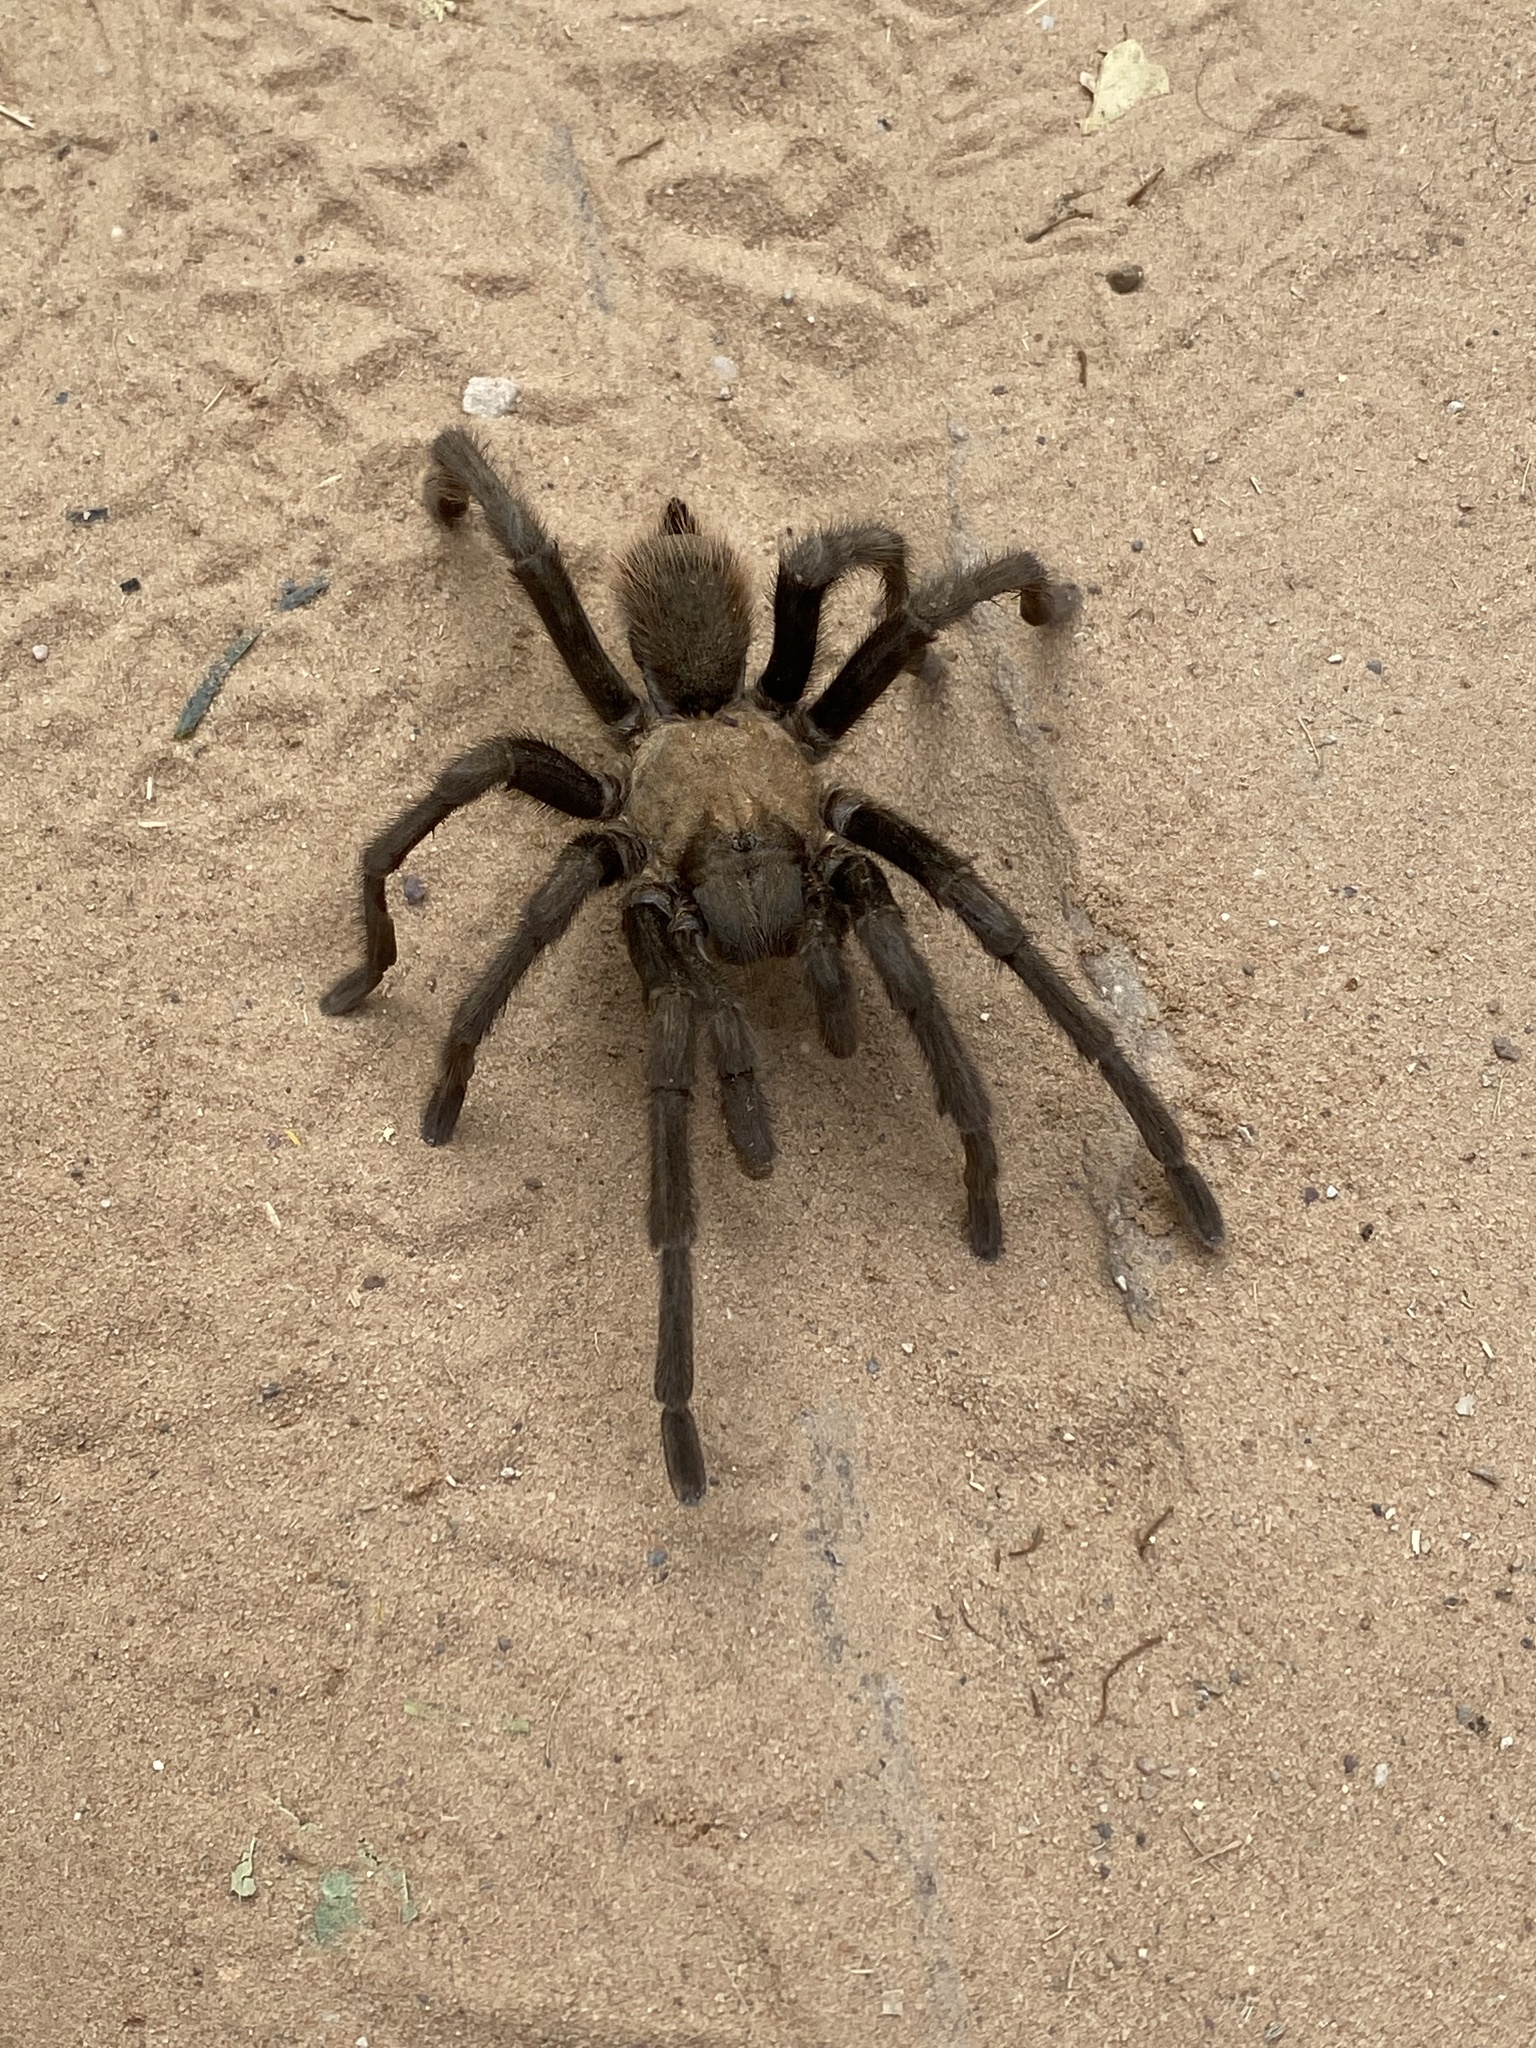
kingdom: Animalia
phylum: Arthropoda
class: Arachnida
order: Araneae
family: Theraphosidae
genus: Aphonopelma
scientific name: Aphonopelma iodius
